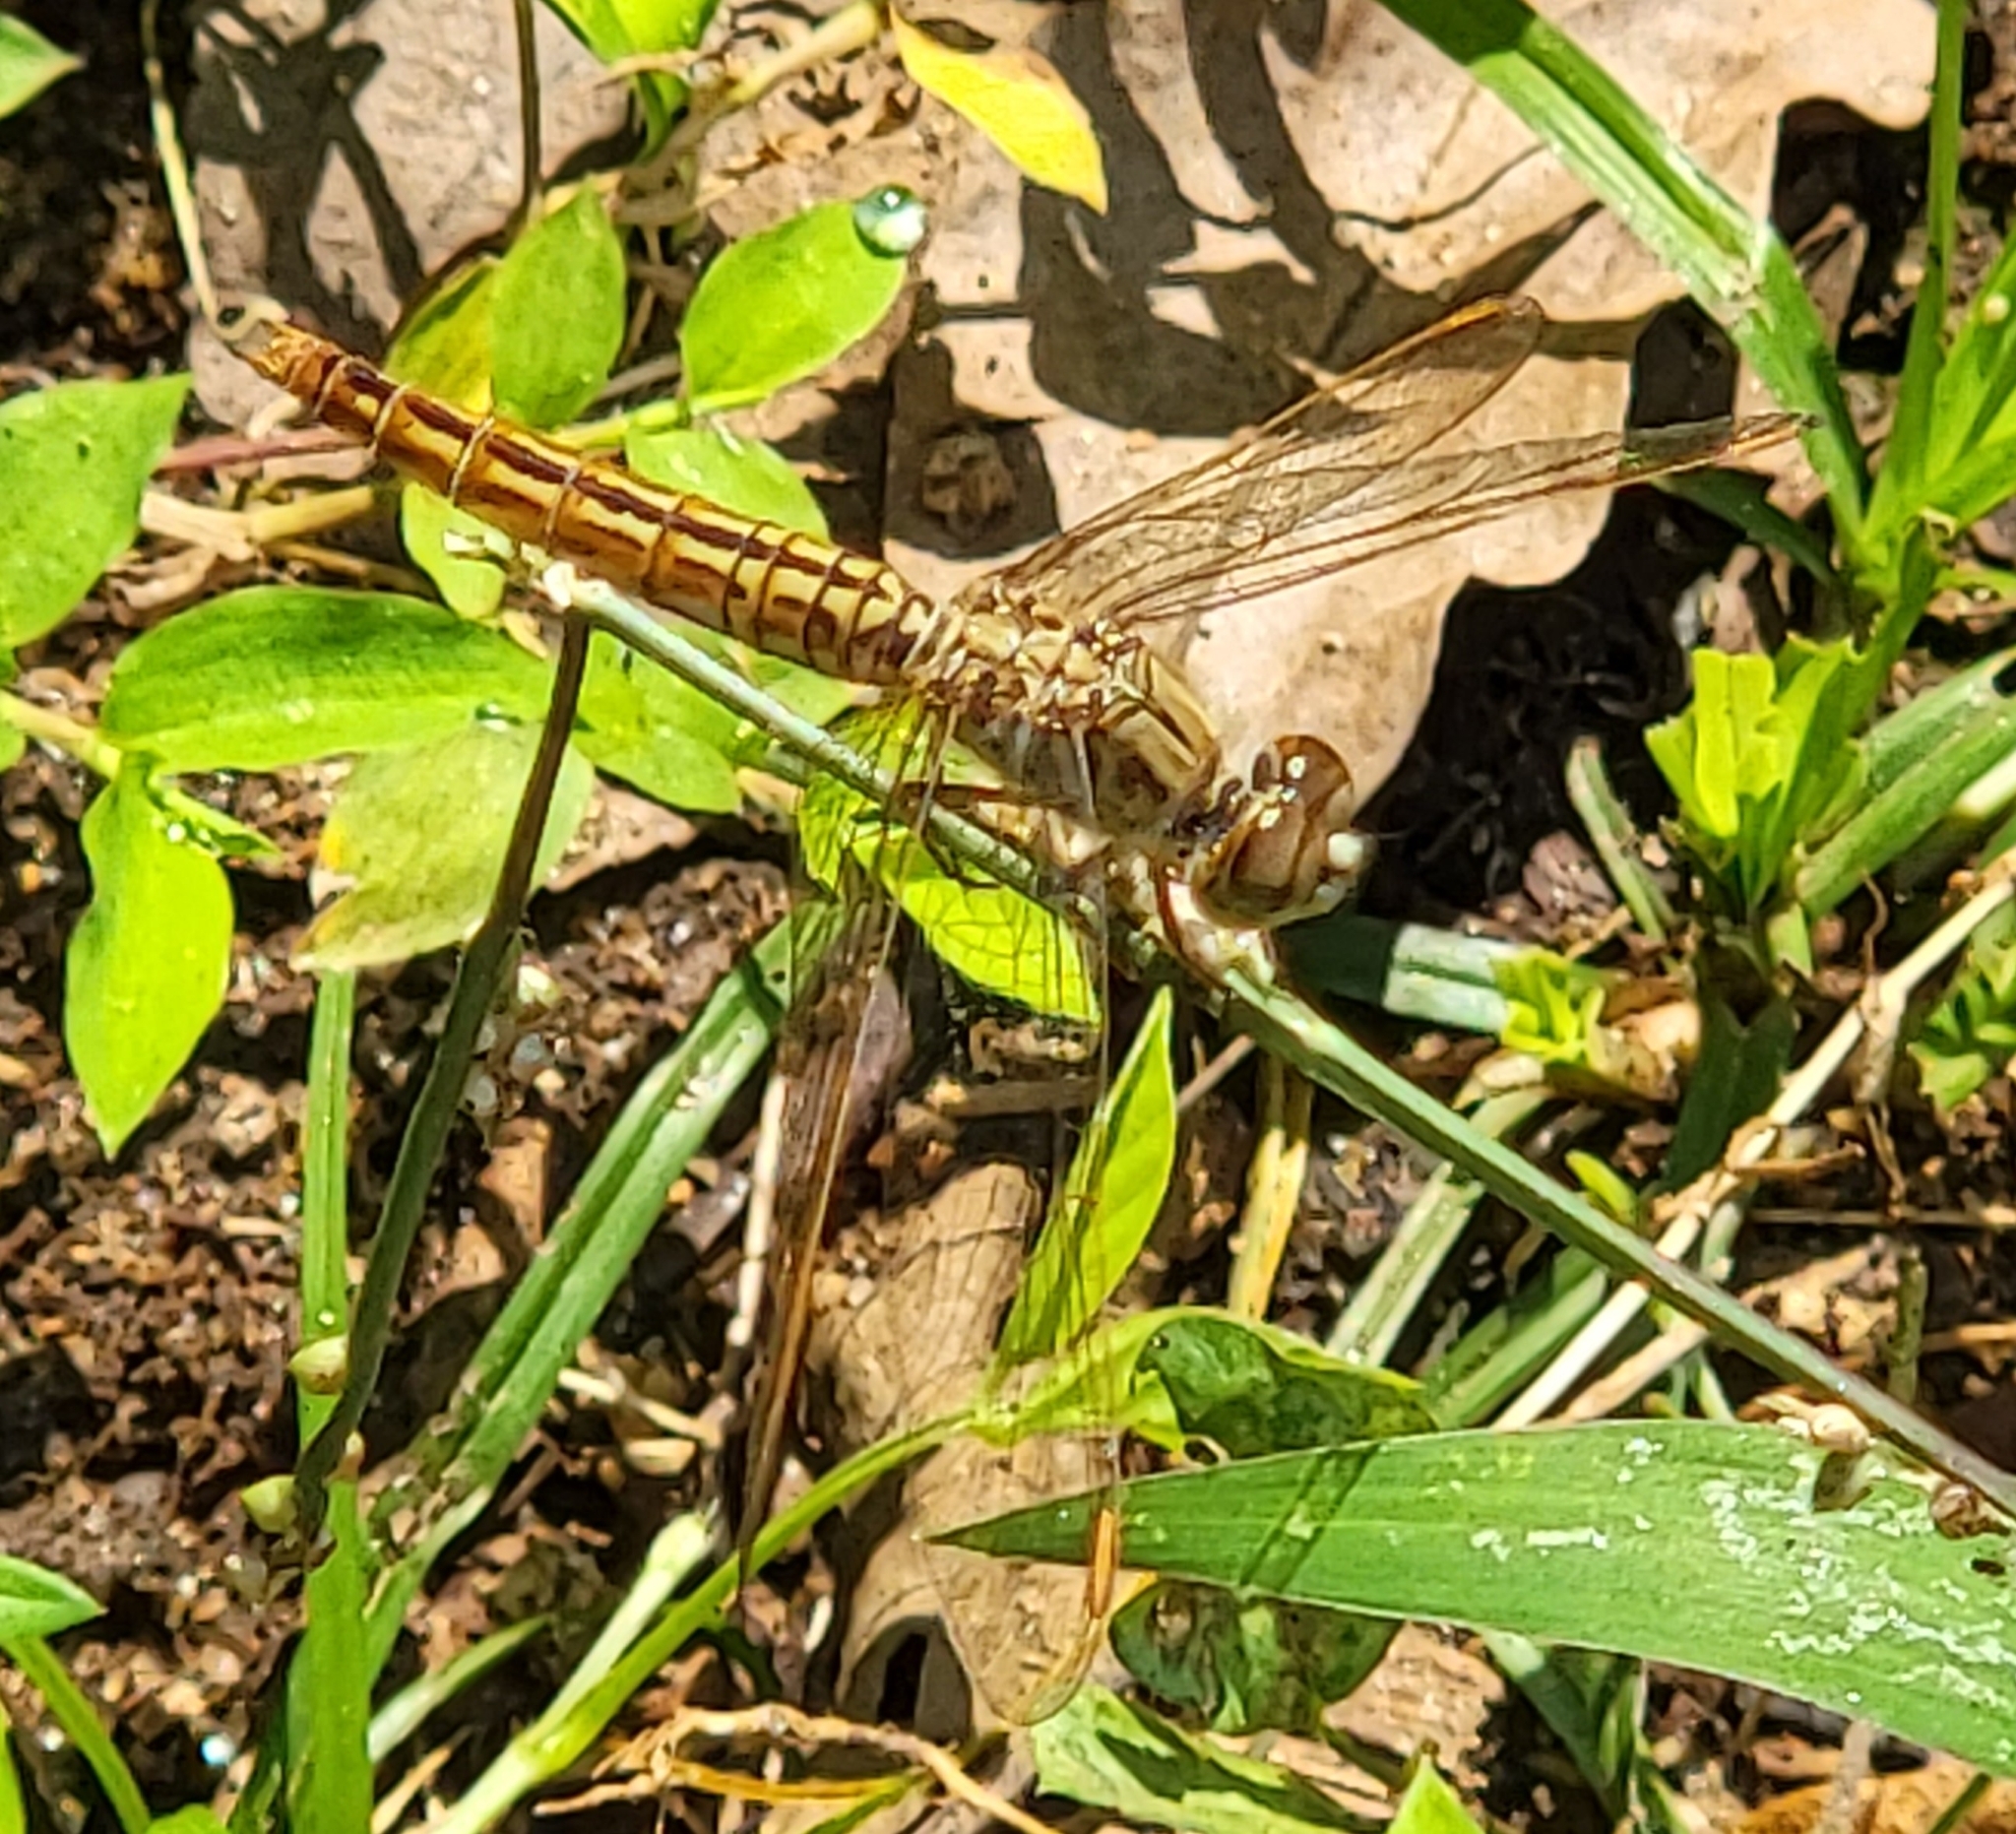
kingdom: Animalia
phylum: Arthropoda
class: Insecta
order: Odonata
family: Libellulidae
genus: Brachythemis
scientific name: Brachythemis contaminata
